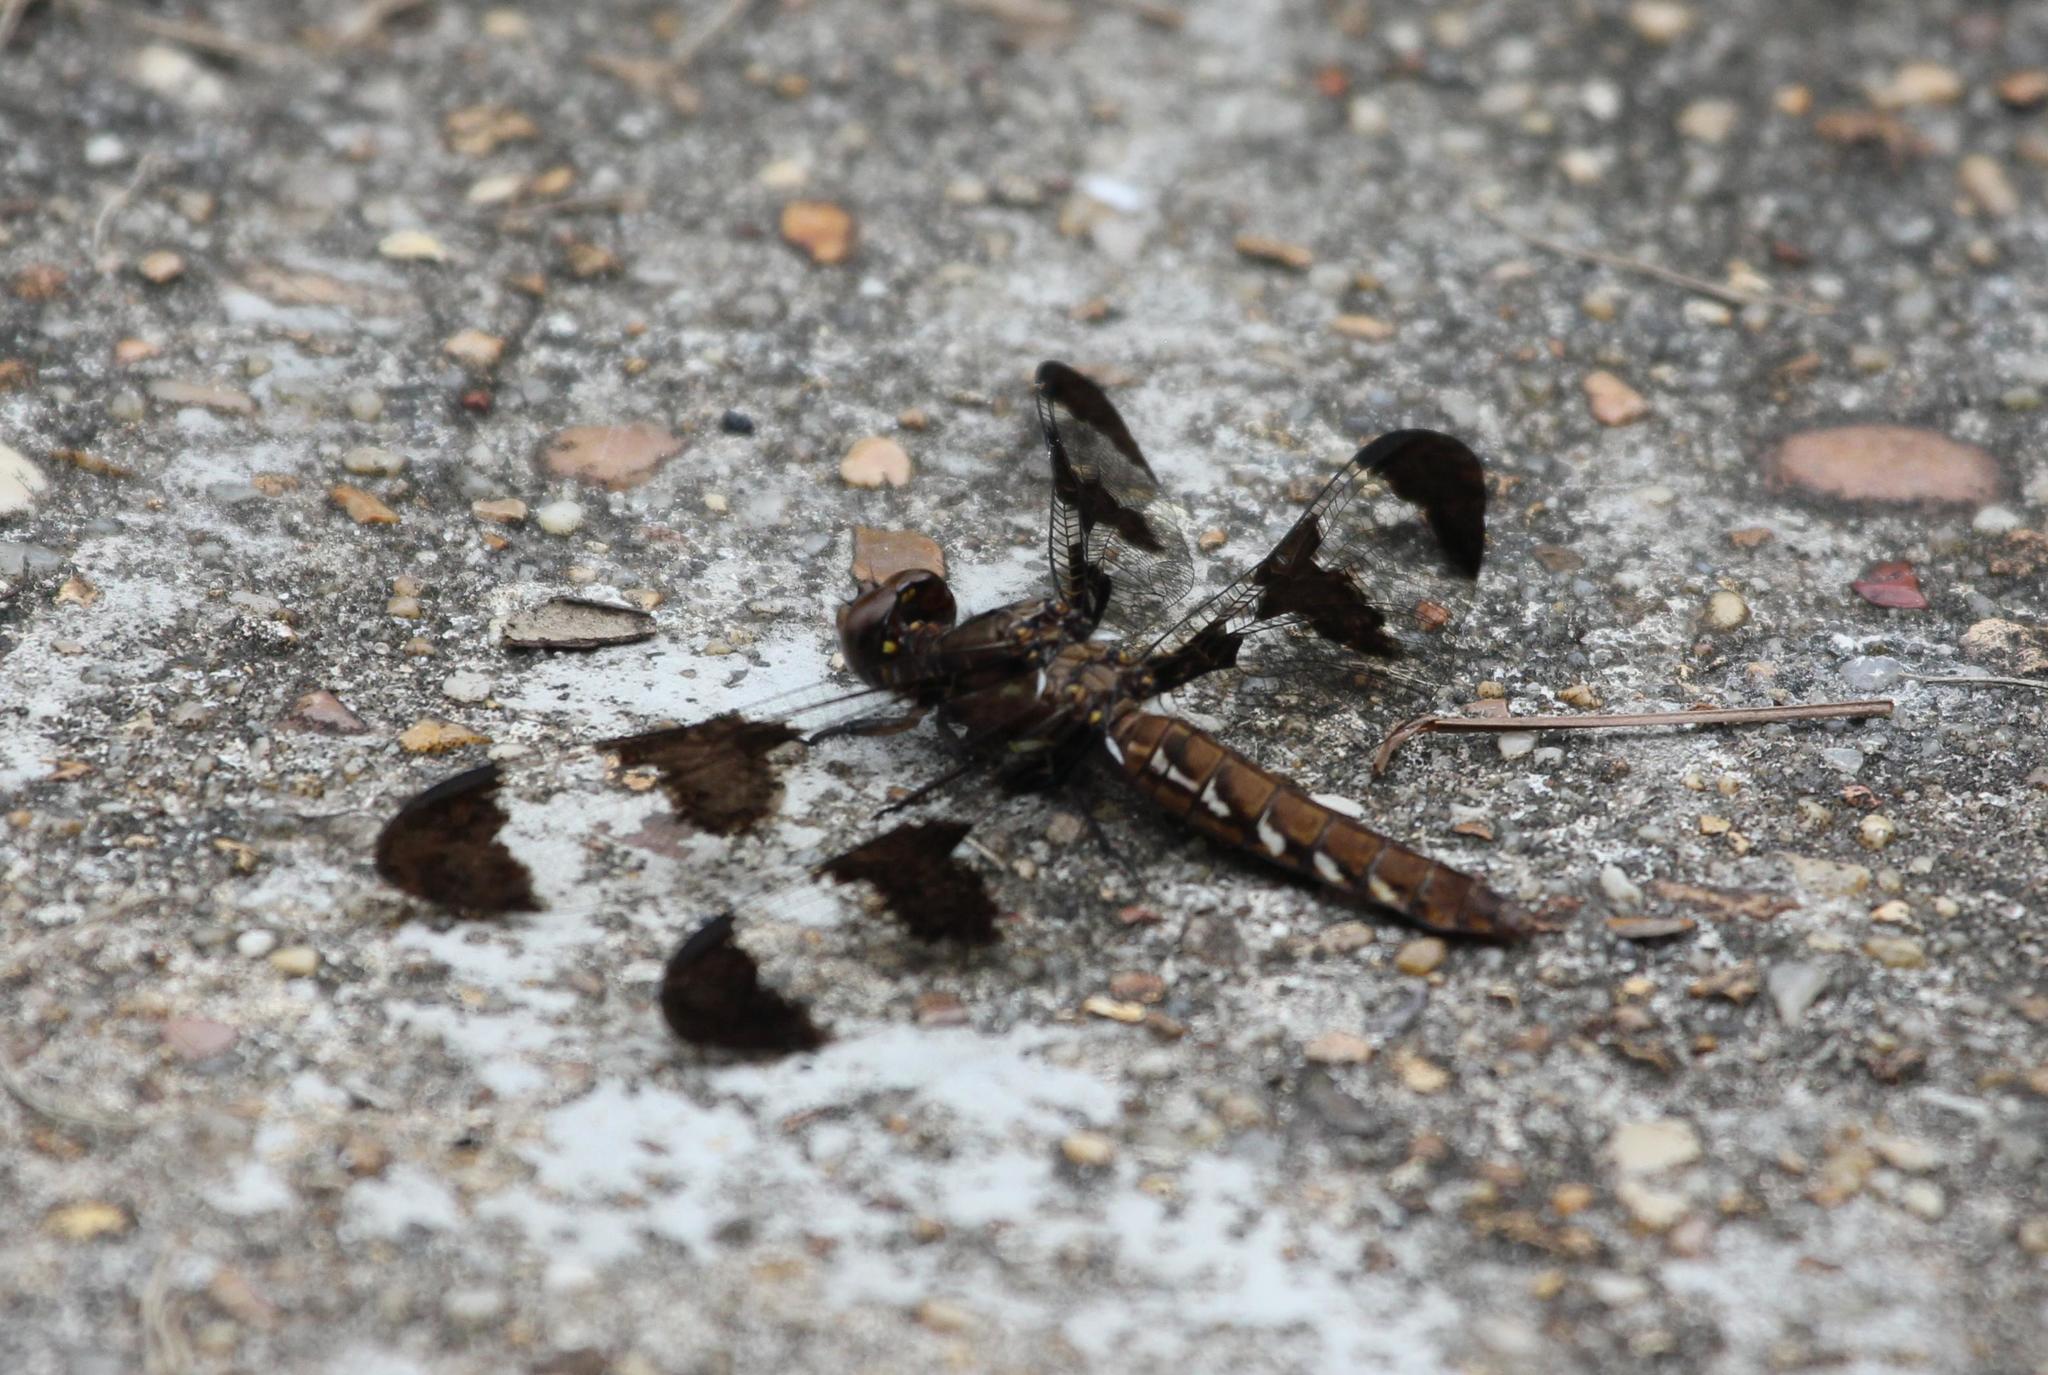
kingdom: Animalia
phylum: Arthropoda
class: Insecta
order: Odonata
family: Libellulidae
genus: Plathemis
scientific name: Plathemis lydia
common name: Common whitetail
